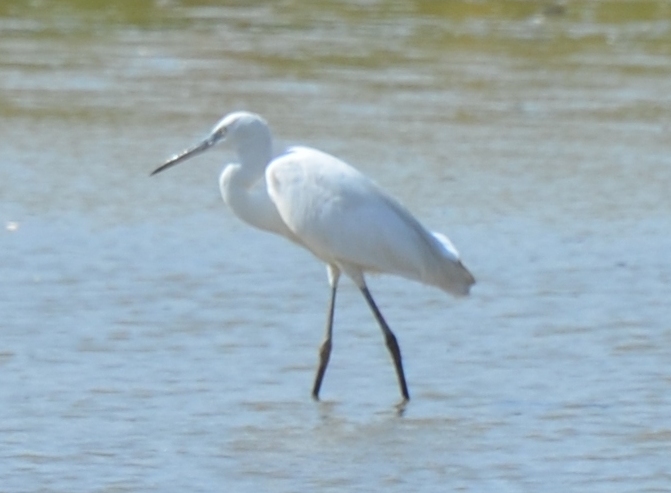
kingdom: Animalia
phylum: Chordata
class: Aves
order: Pelecaniformes
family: Ardeidae
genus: Egretta
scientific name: Egretta garzetta
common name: Little egret
